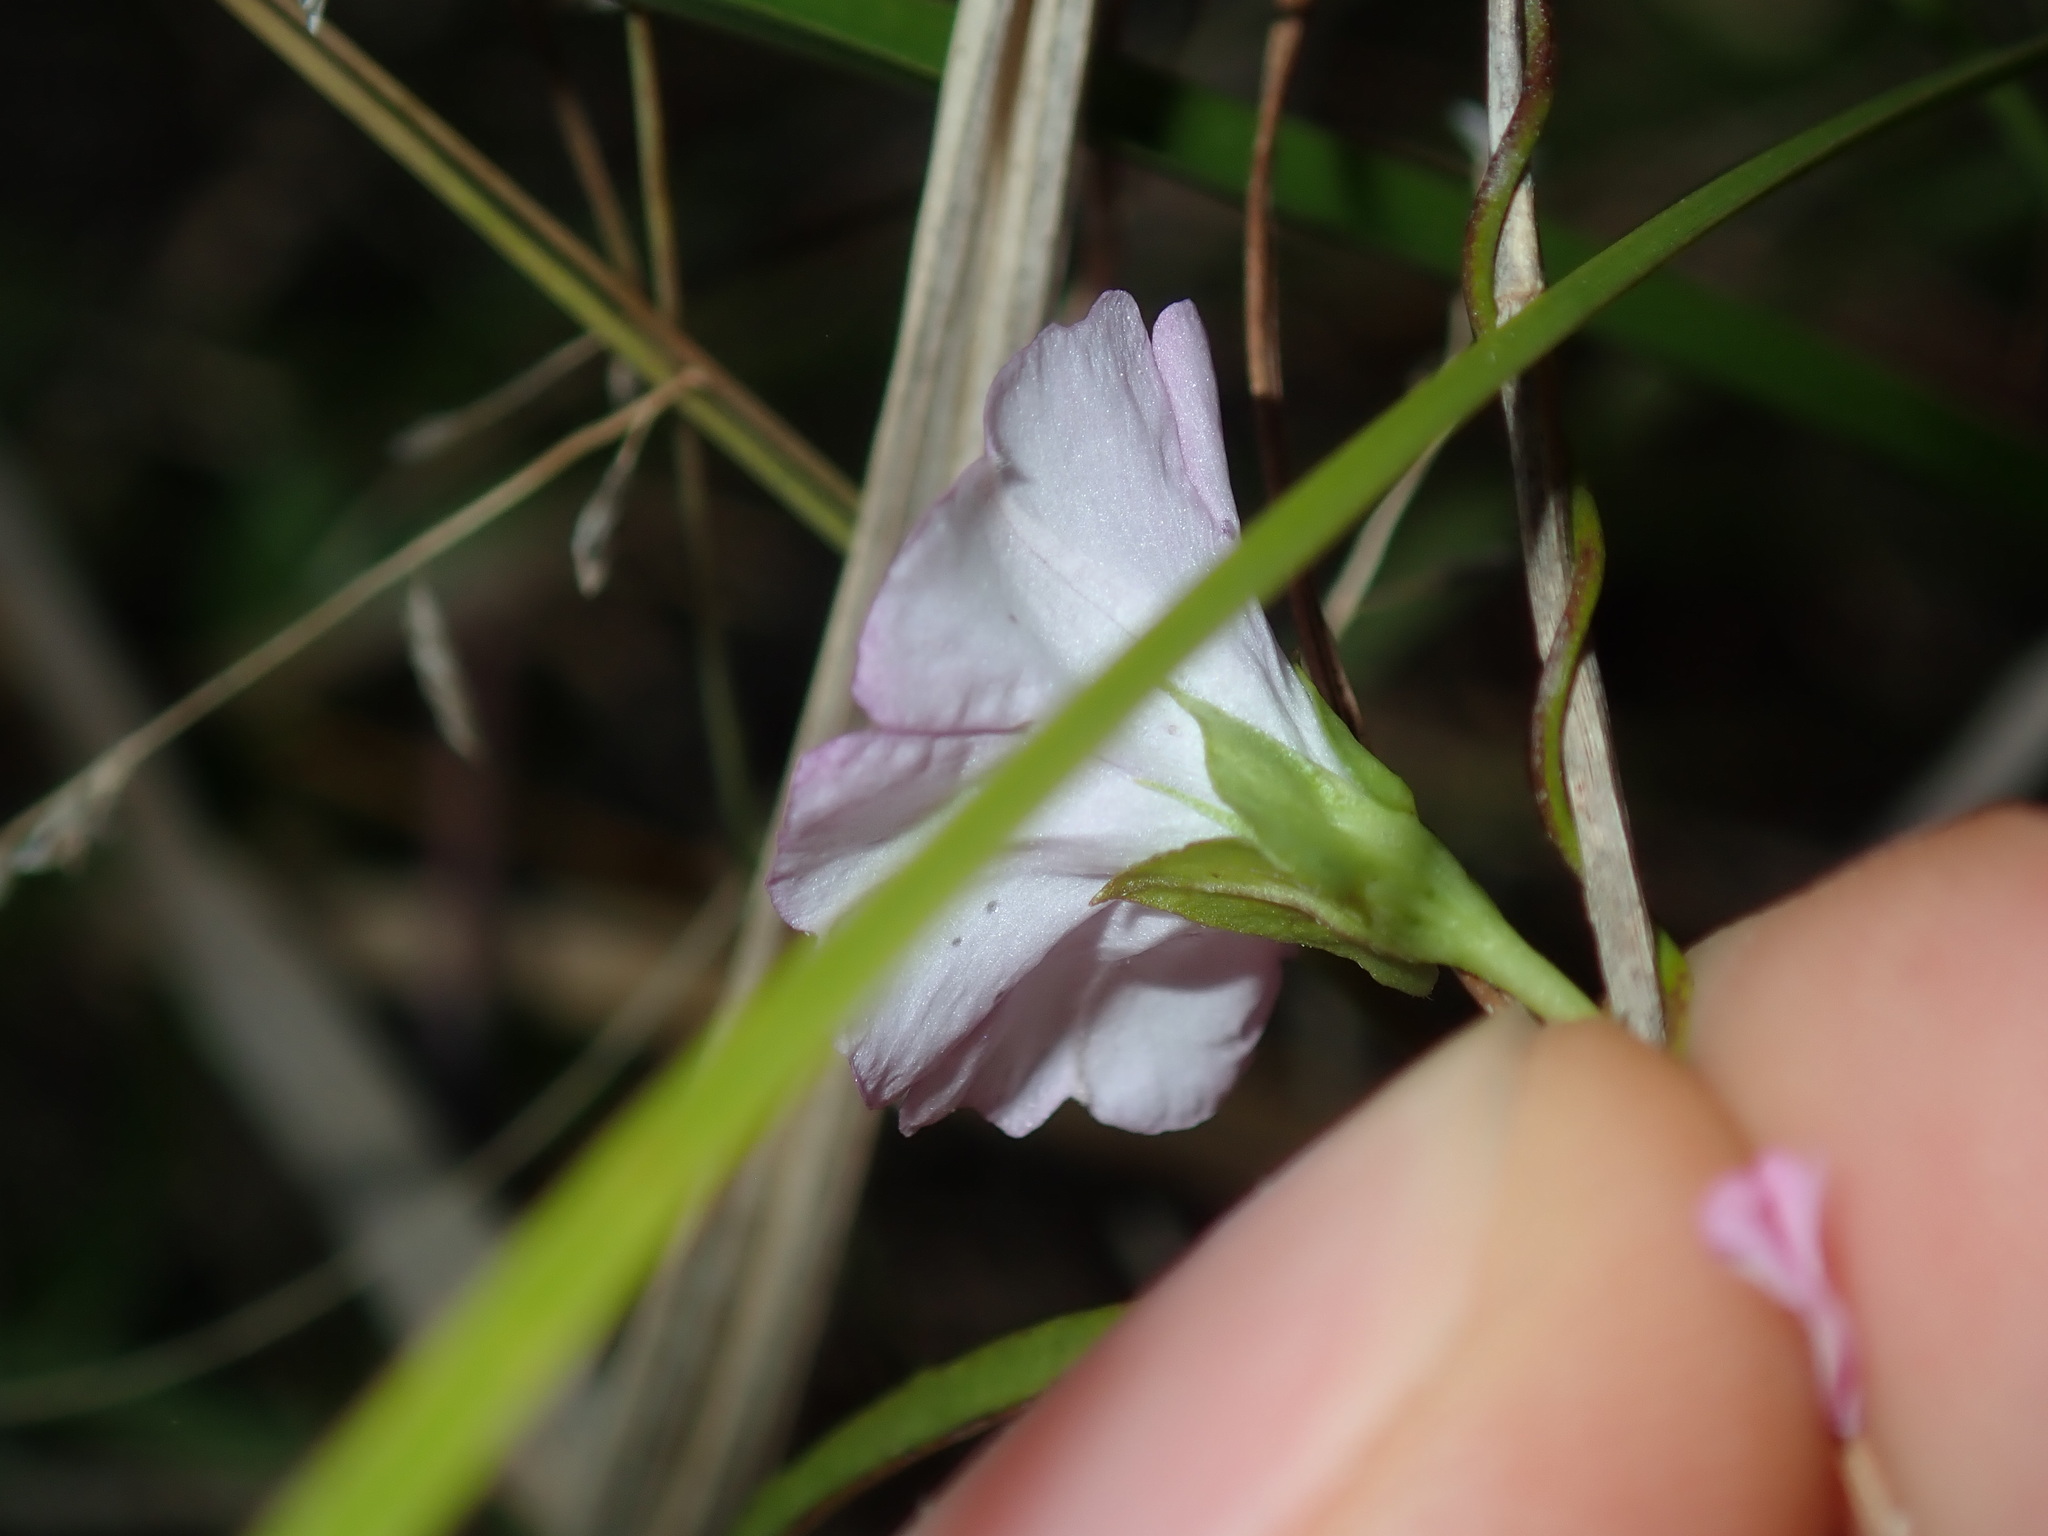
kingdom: Plantae
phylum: Tracheophyta
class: Magnoliopsida
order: Solanales
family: Convolvulaceae
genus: Polymeria
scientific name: Polymeria calycina
